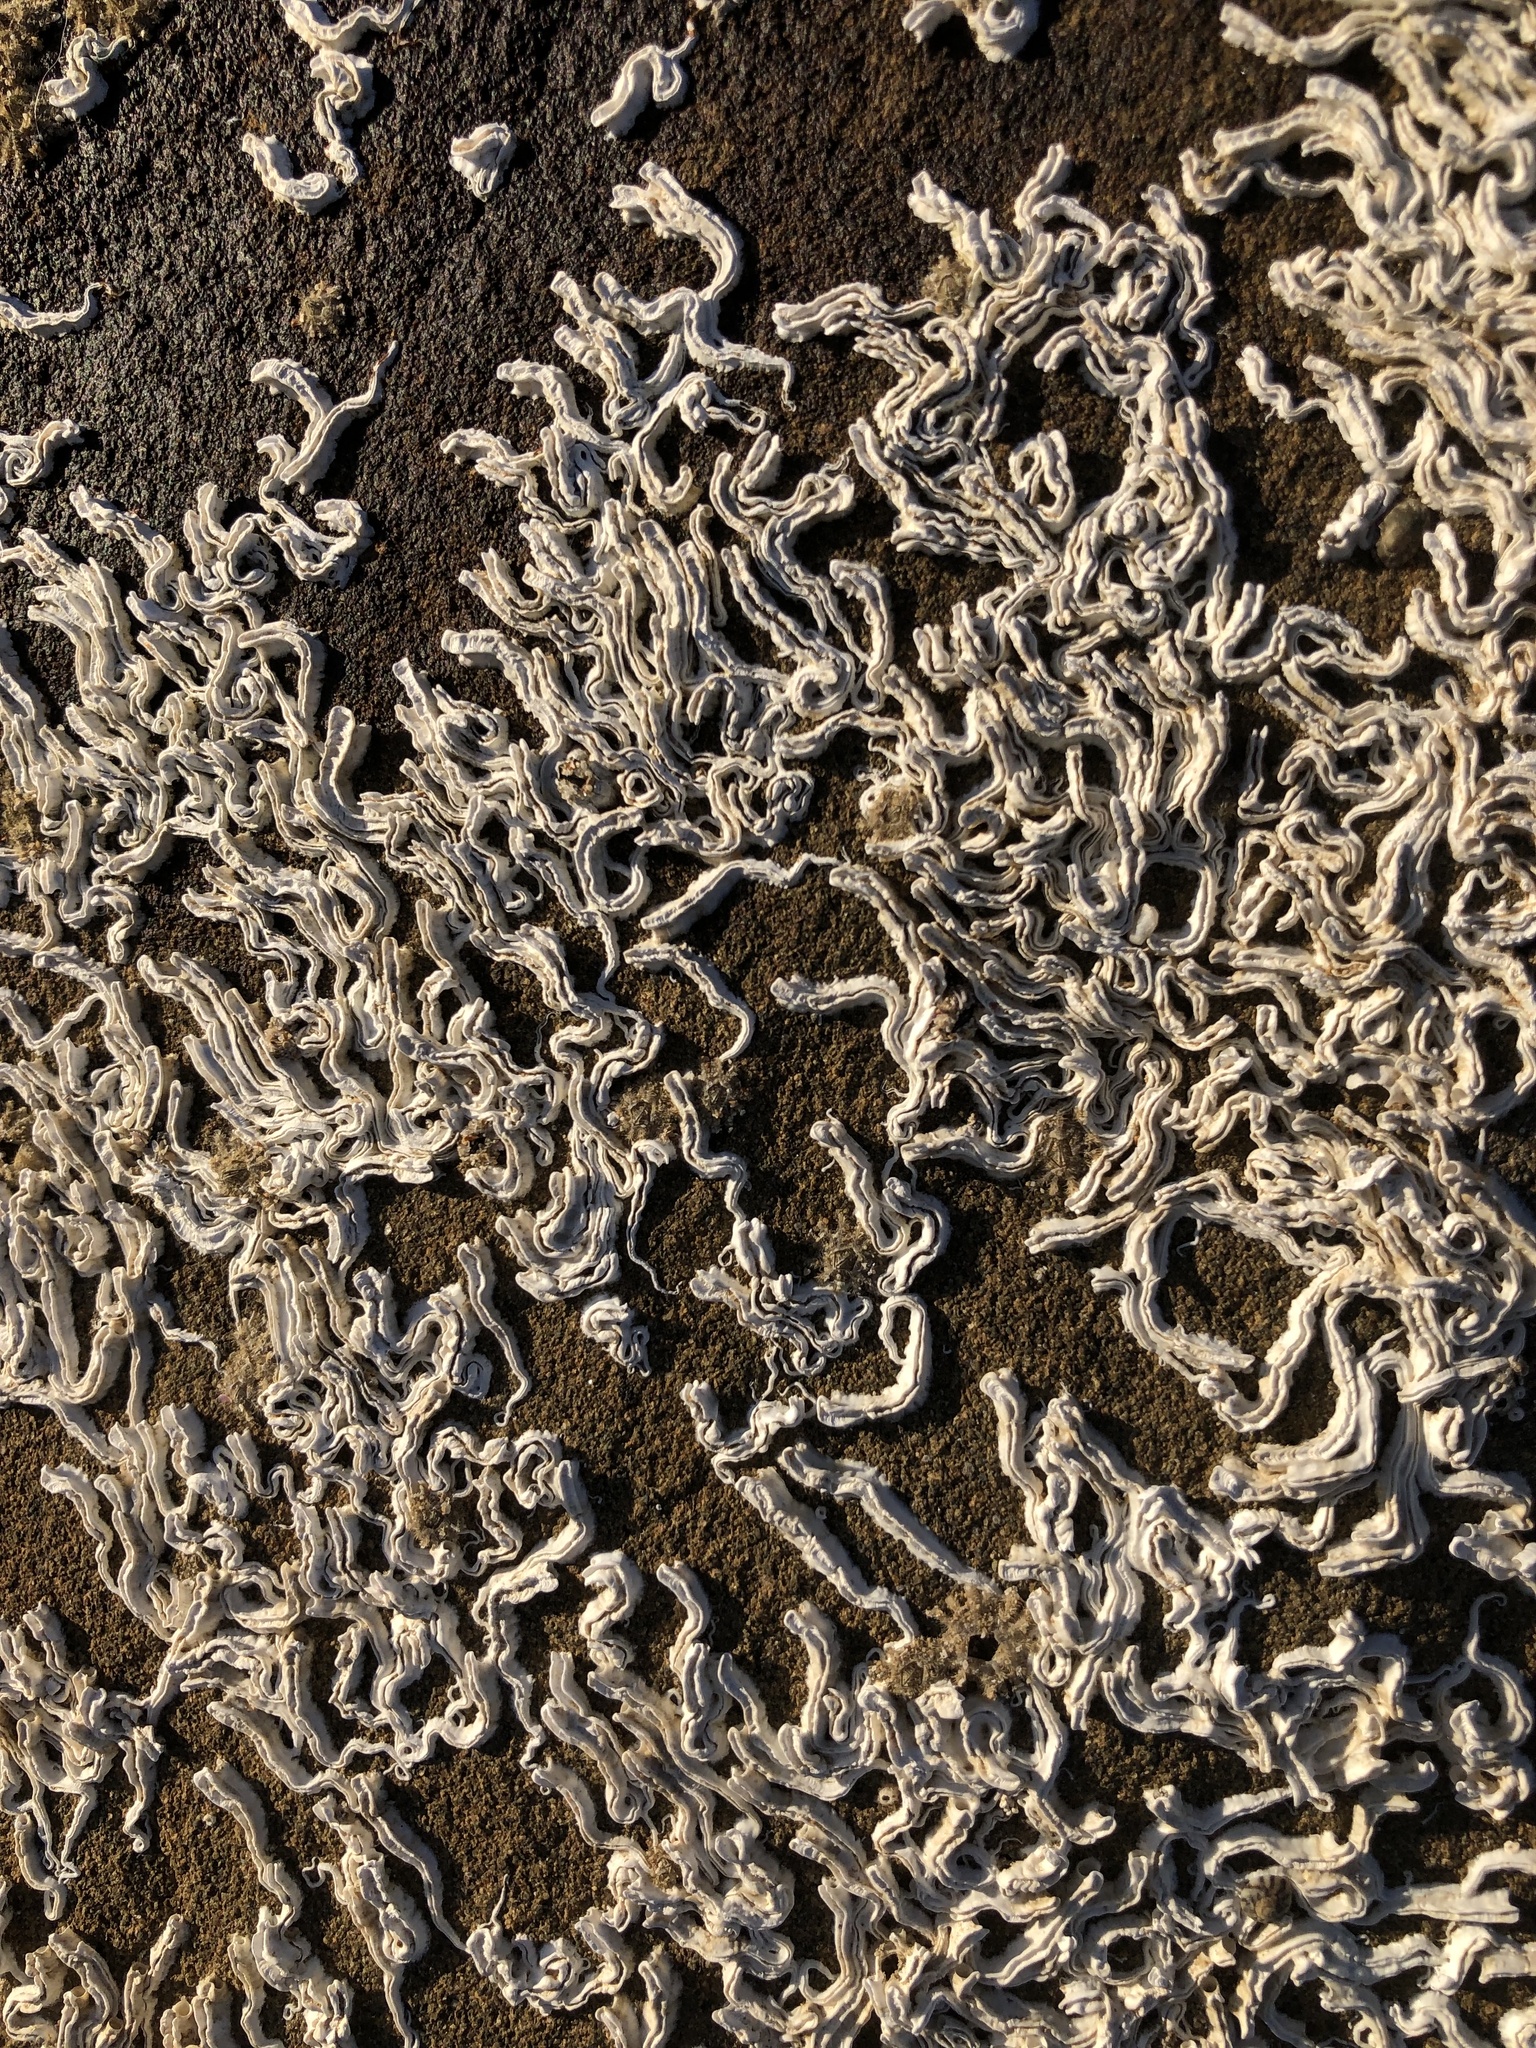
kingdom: Animalia
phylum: Annelida
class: Polychaeta
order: Sabellida
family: Serpulidae
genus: Galeolaria
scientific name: Galeolaria caespitosa
